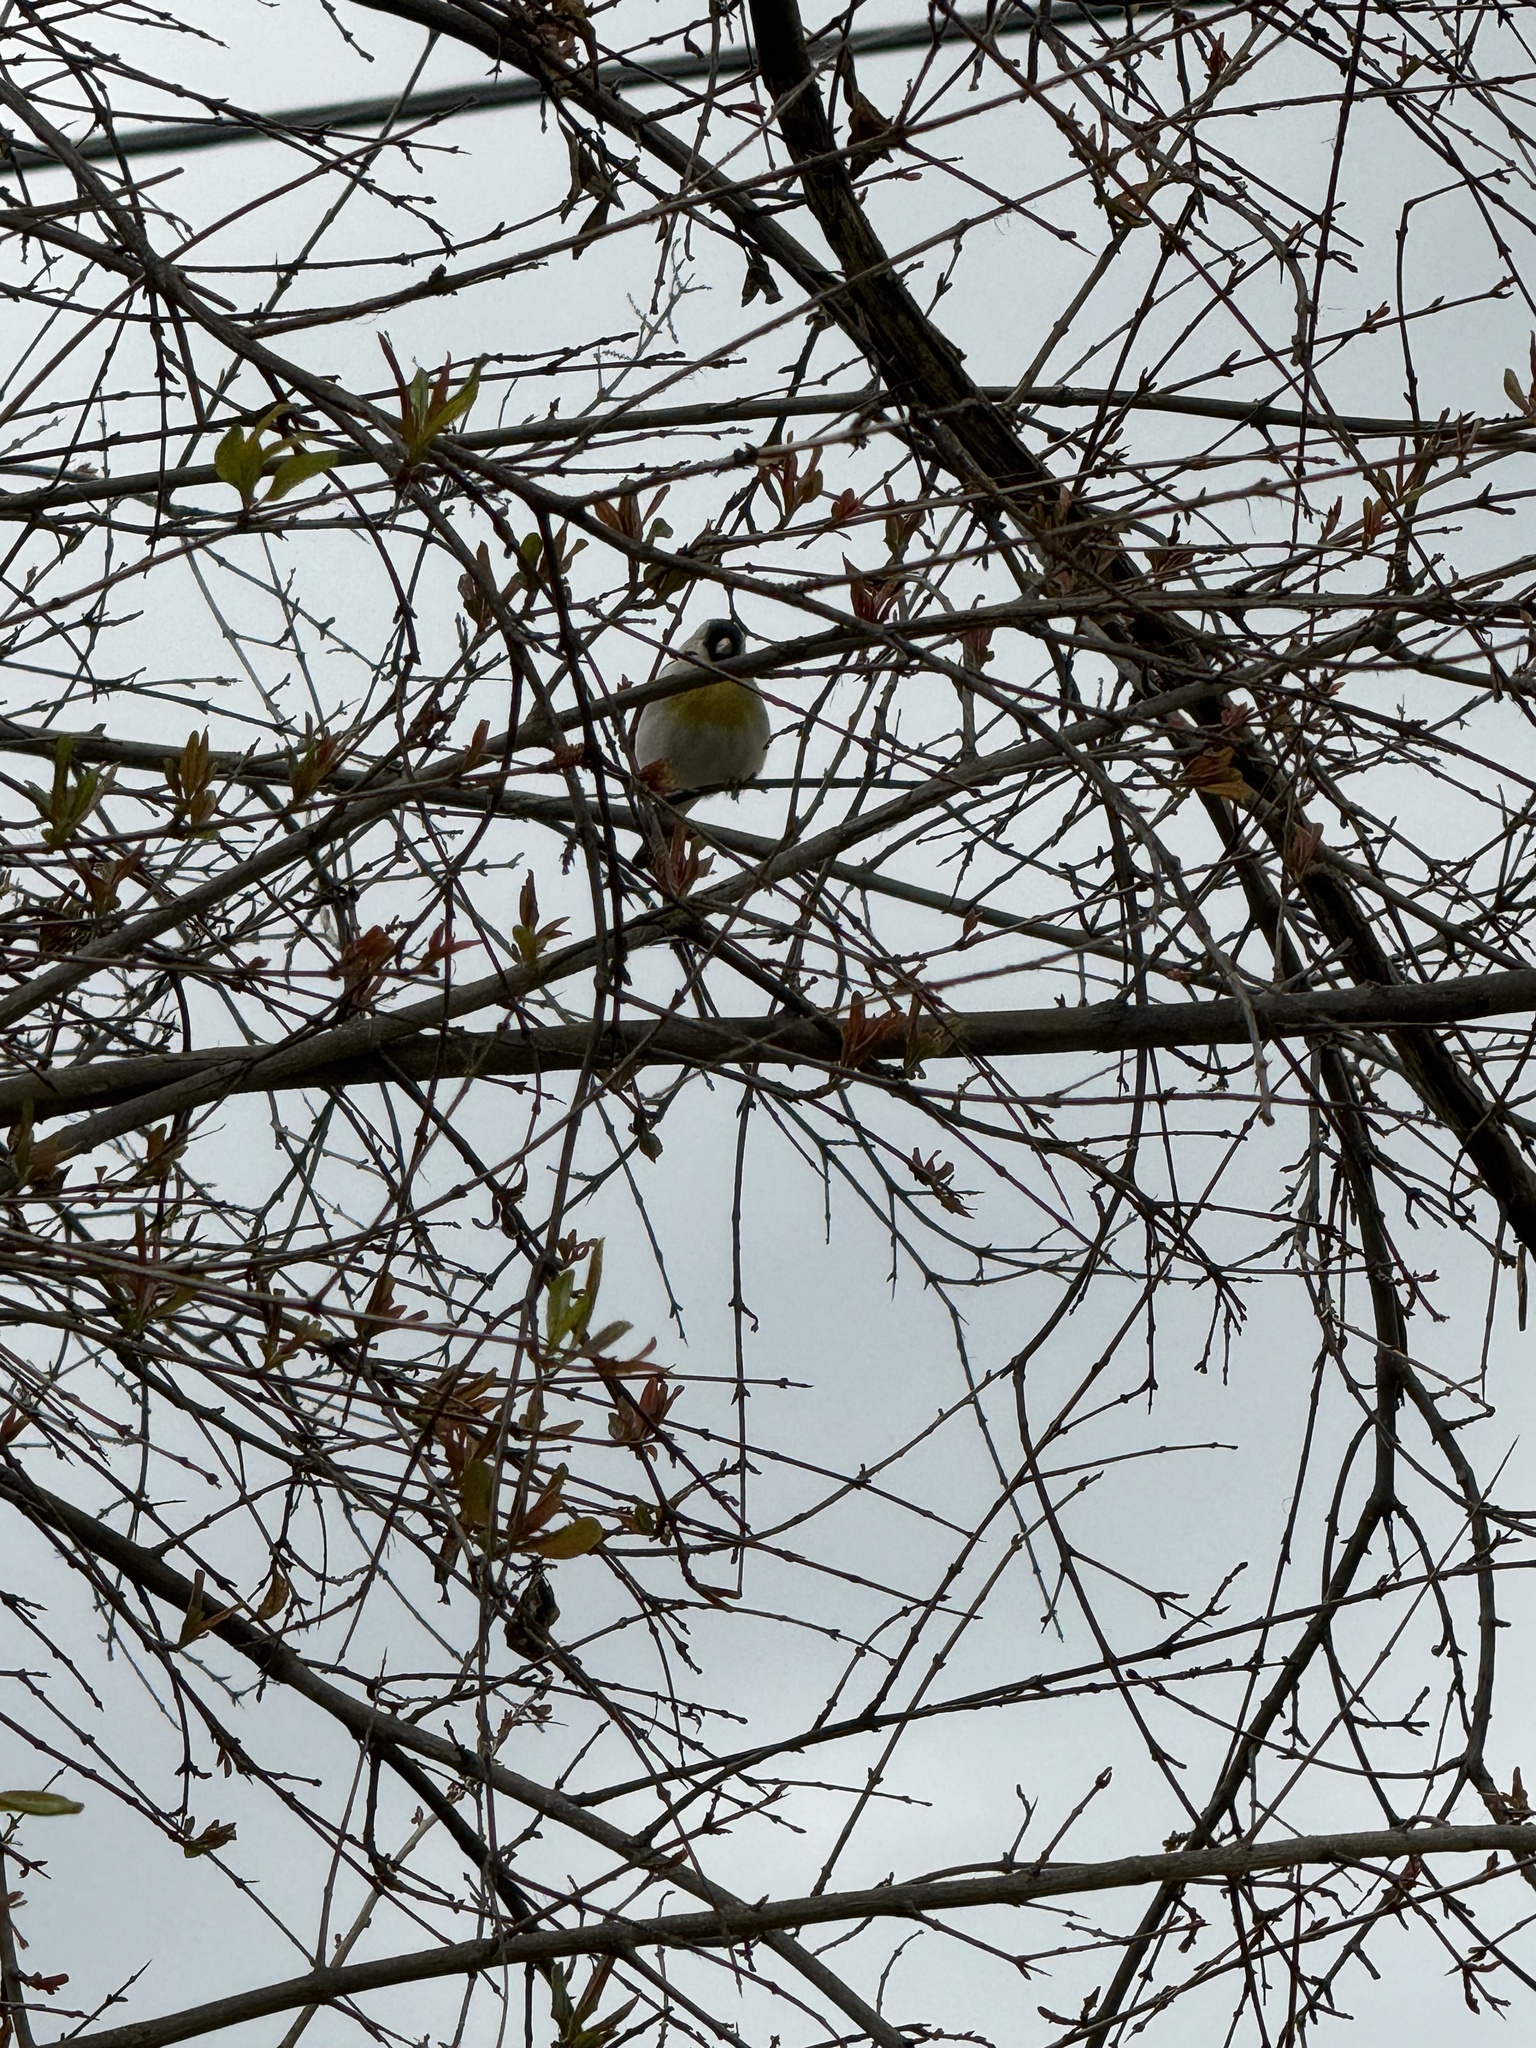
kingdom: Animalia
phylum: Chordata
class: Aves
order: Passeriformes
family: Fringillidae
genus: Spinus
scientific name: Spinus lawrencei
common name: Lawrence's goldfinch
